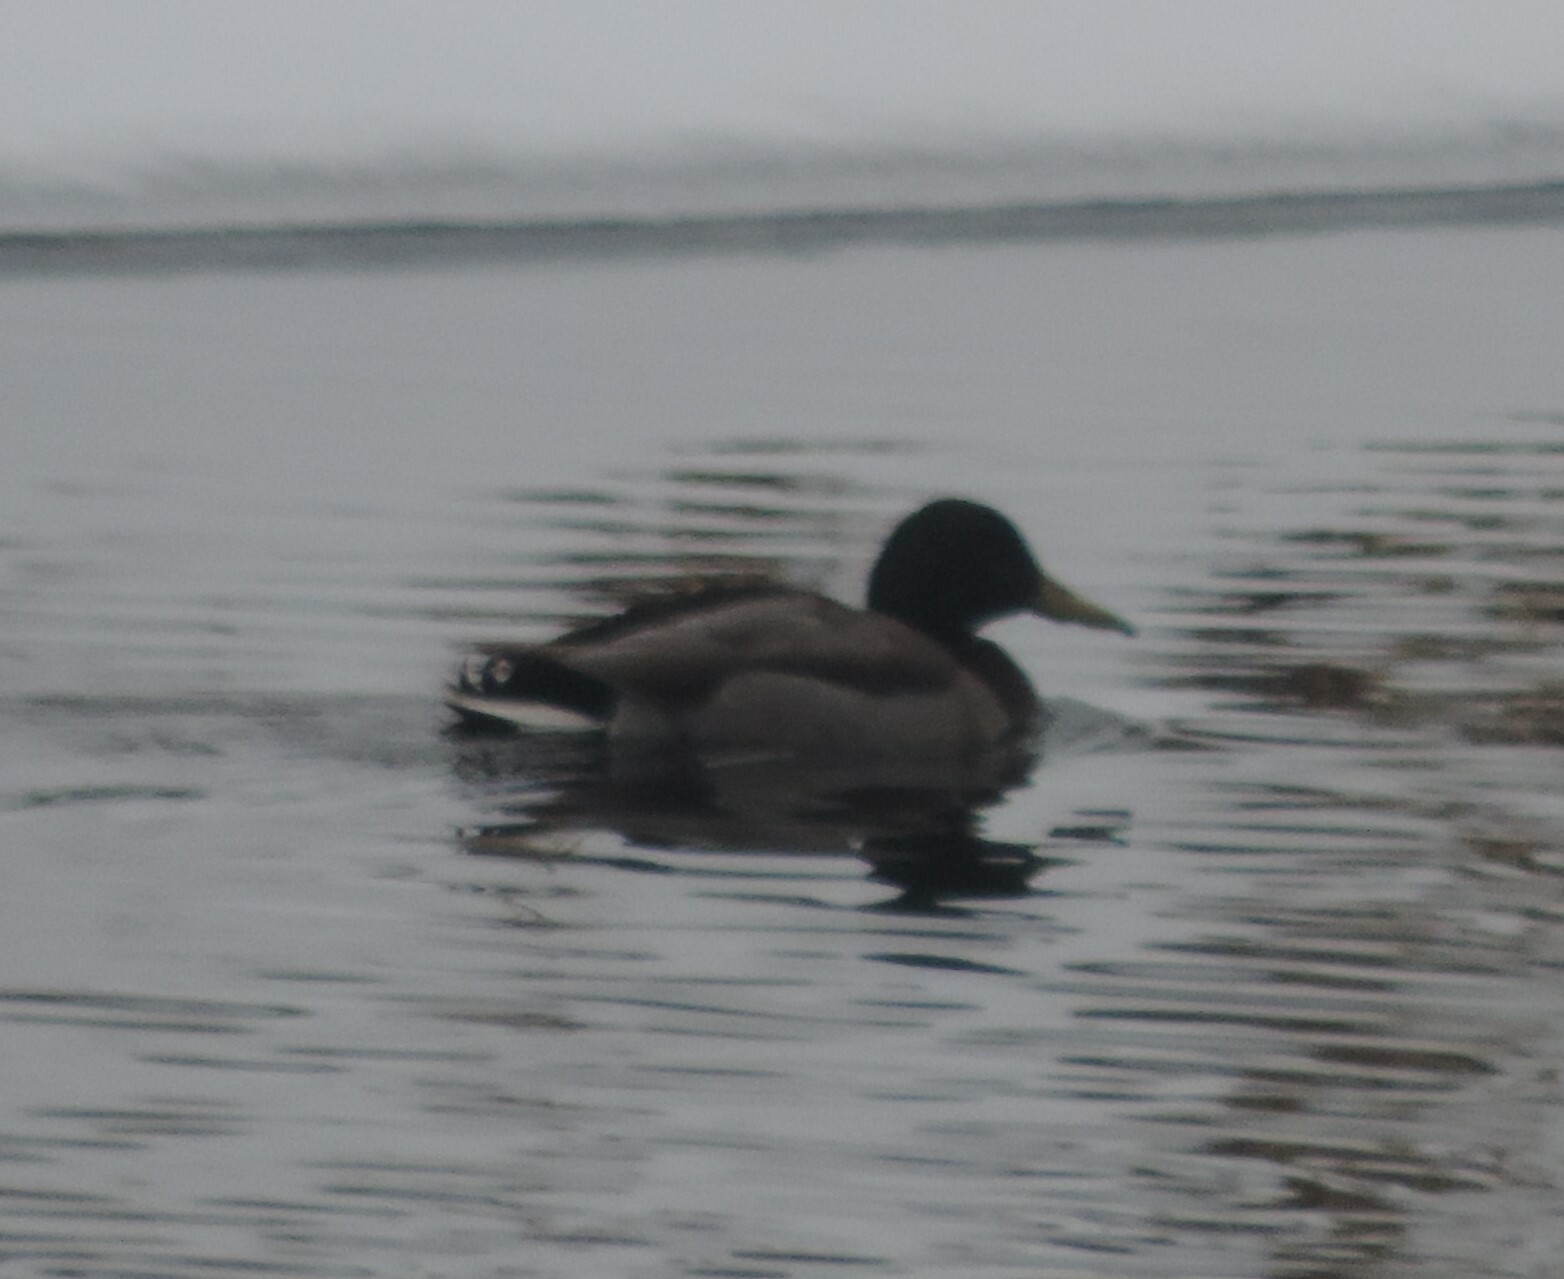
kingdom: Animalia
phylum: Chordata
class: Aves
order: Anseriformes
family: Anatidae
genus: Anas
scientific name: Anas platyrhynchos
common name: Mallard
